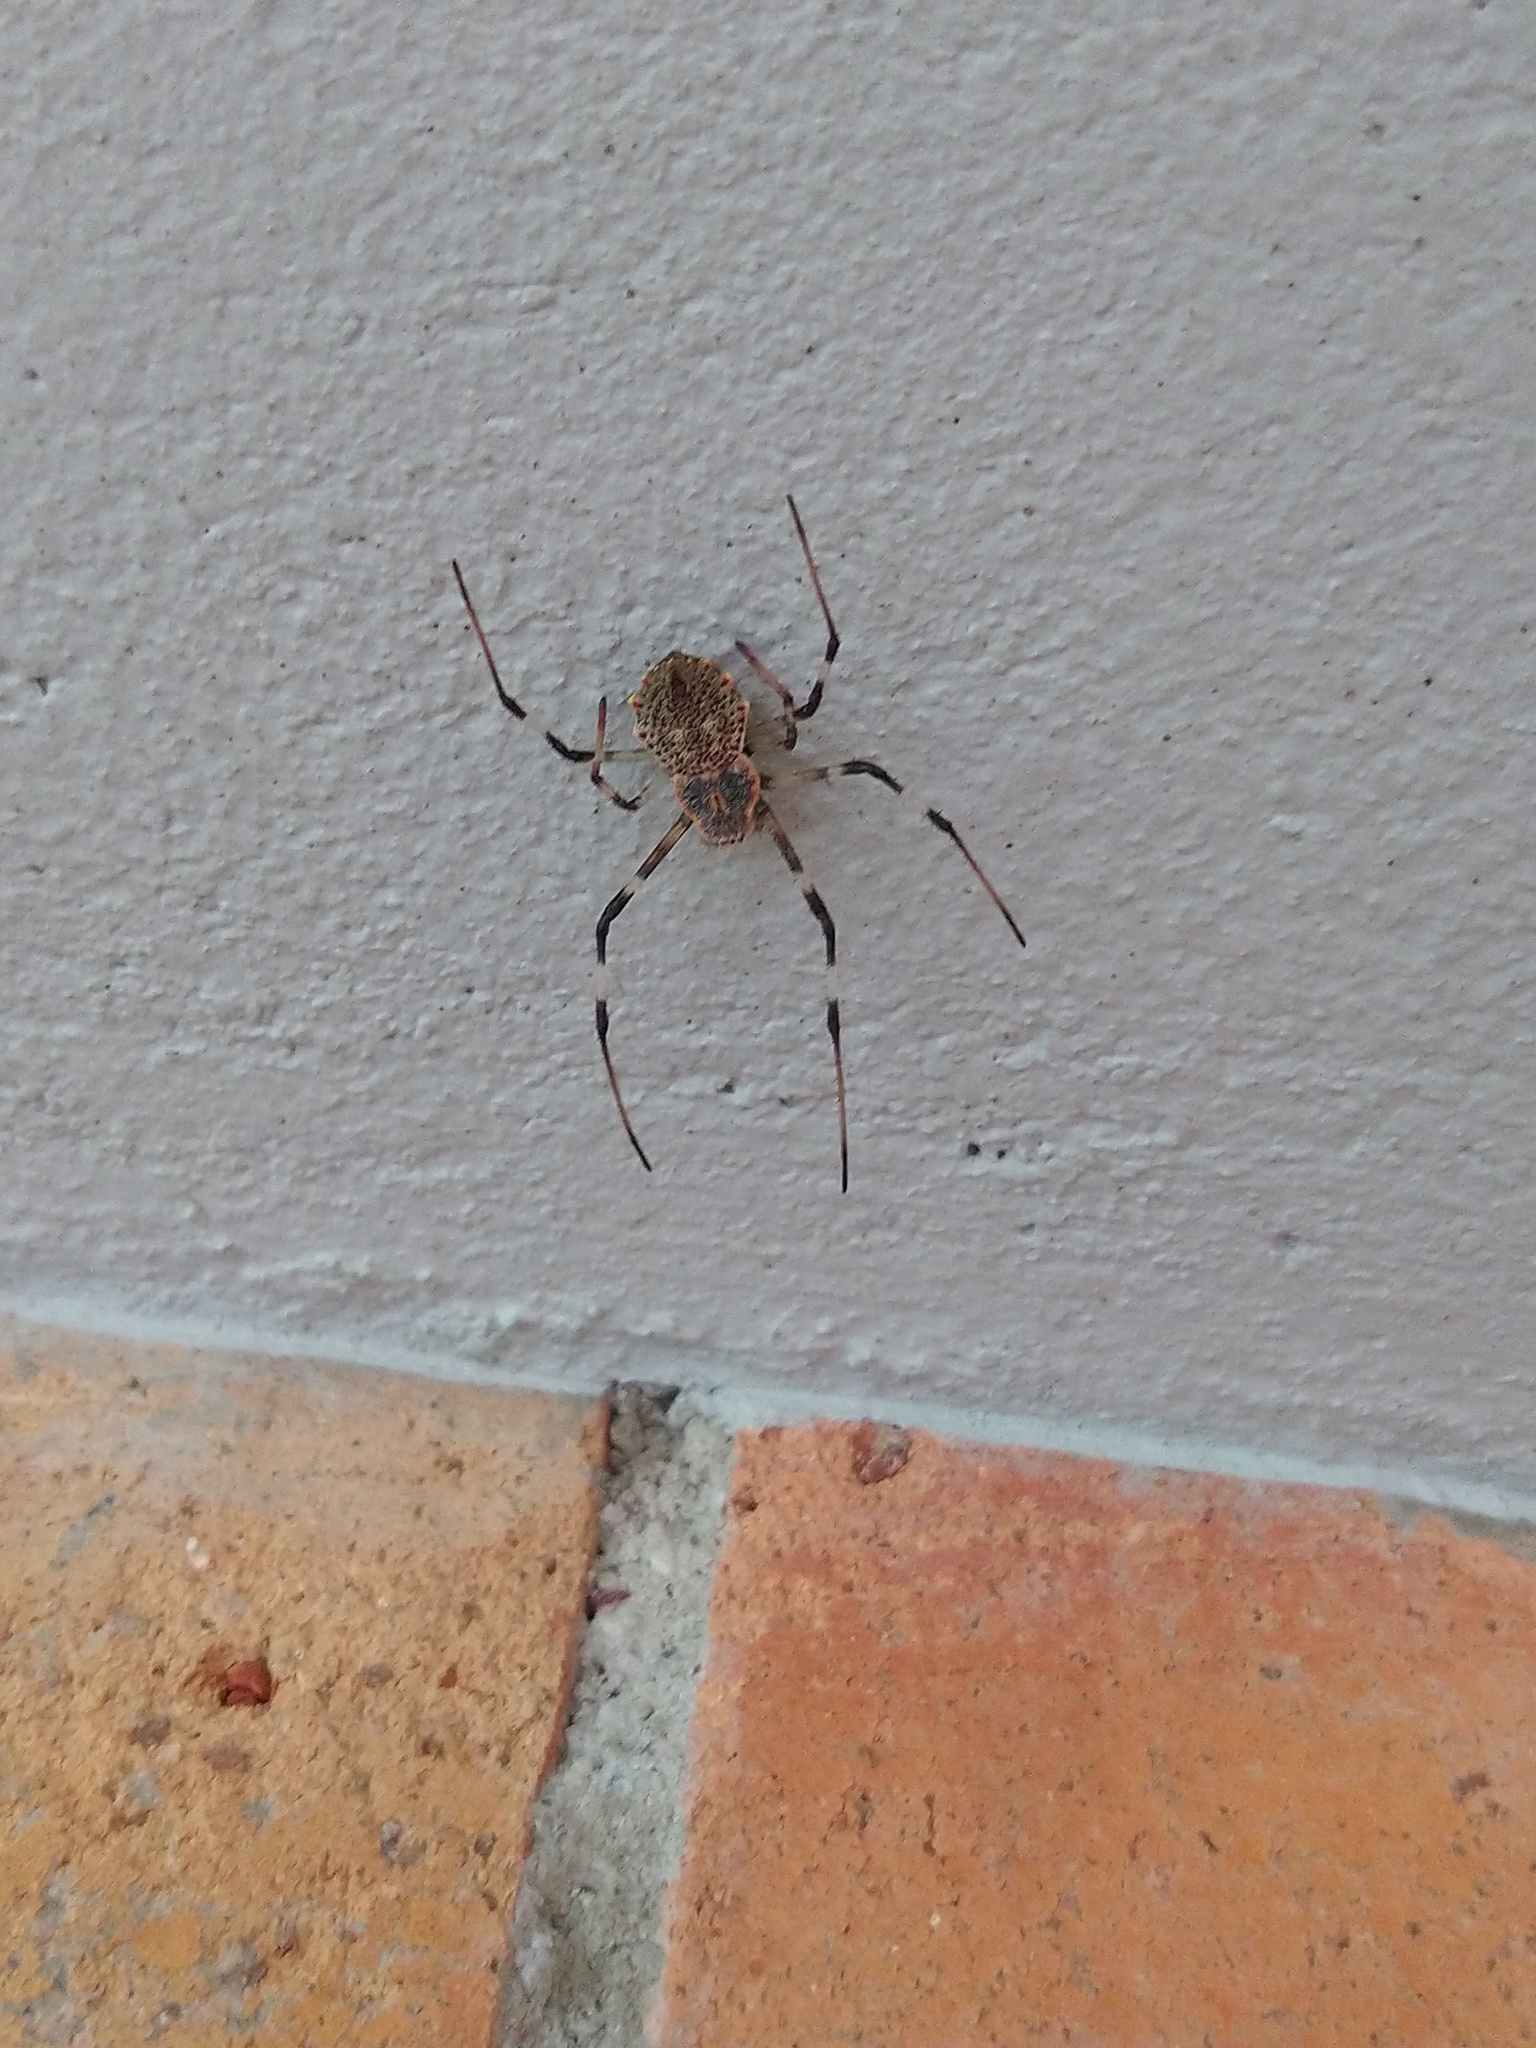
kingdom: Animalia
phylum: Arthropoda
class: Arachnida
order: Araneae
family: Araneidae
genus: Herennia
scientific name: Herennia multipuncta
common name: Spotted coin spider
